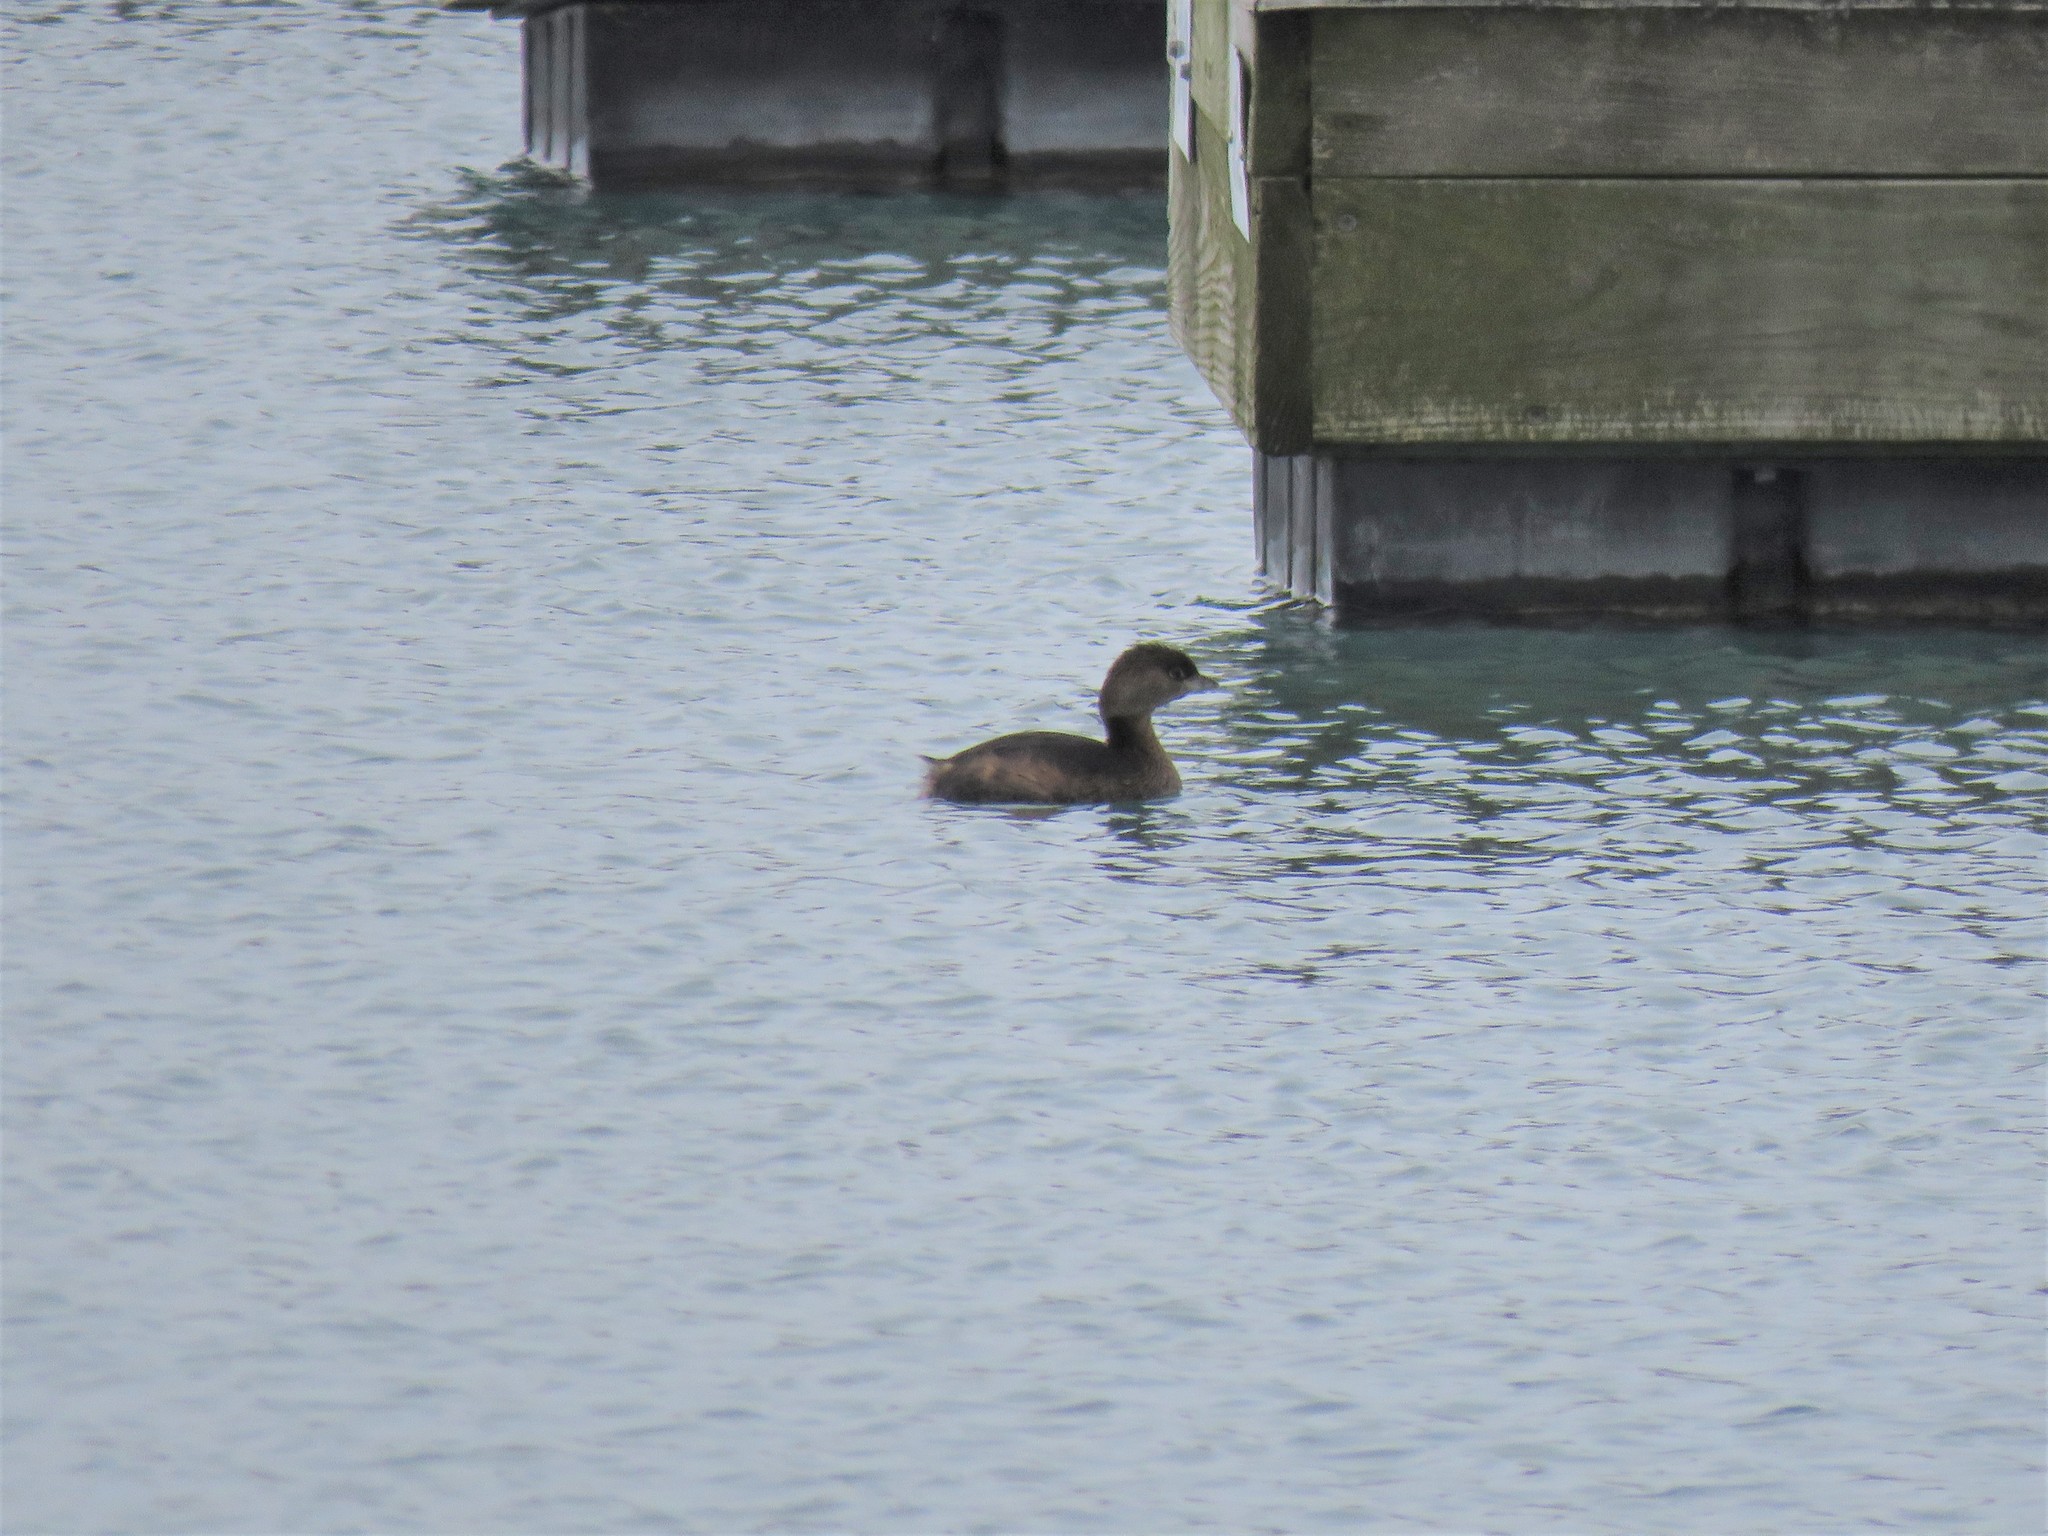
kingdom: Animalia
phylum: Chordata
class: Aves
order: Podicipediformes
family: Podicipedidae
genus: Podilymbus
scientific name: Podilymbus podiceps
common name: Pied-billed grebe
